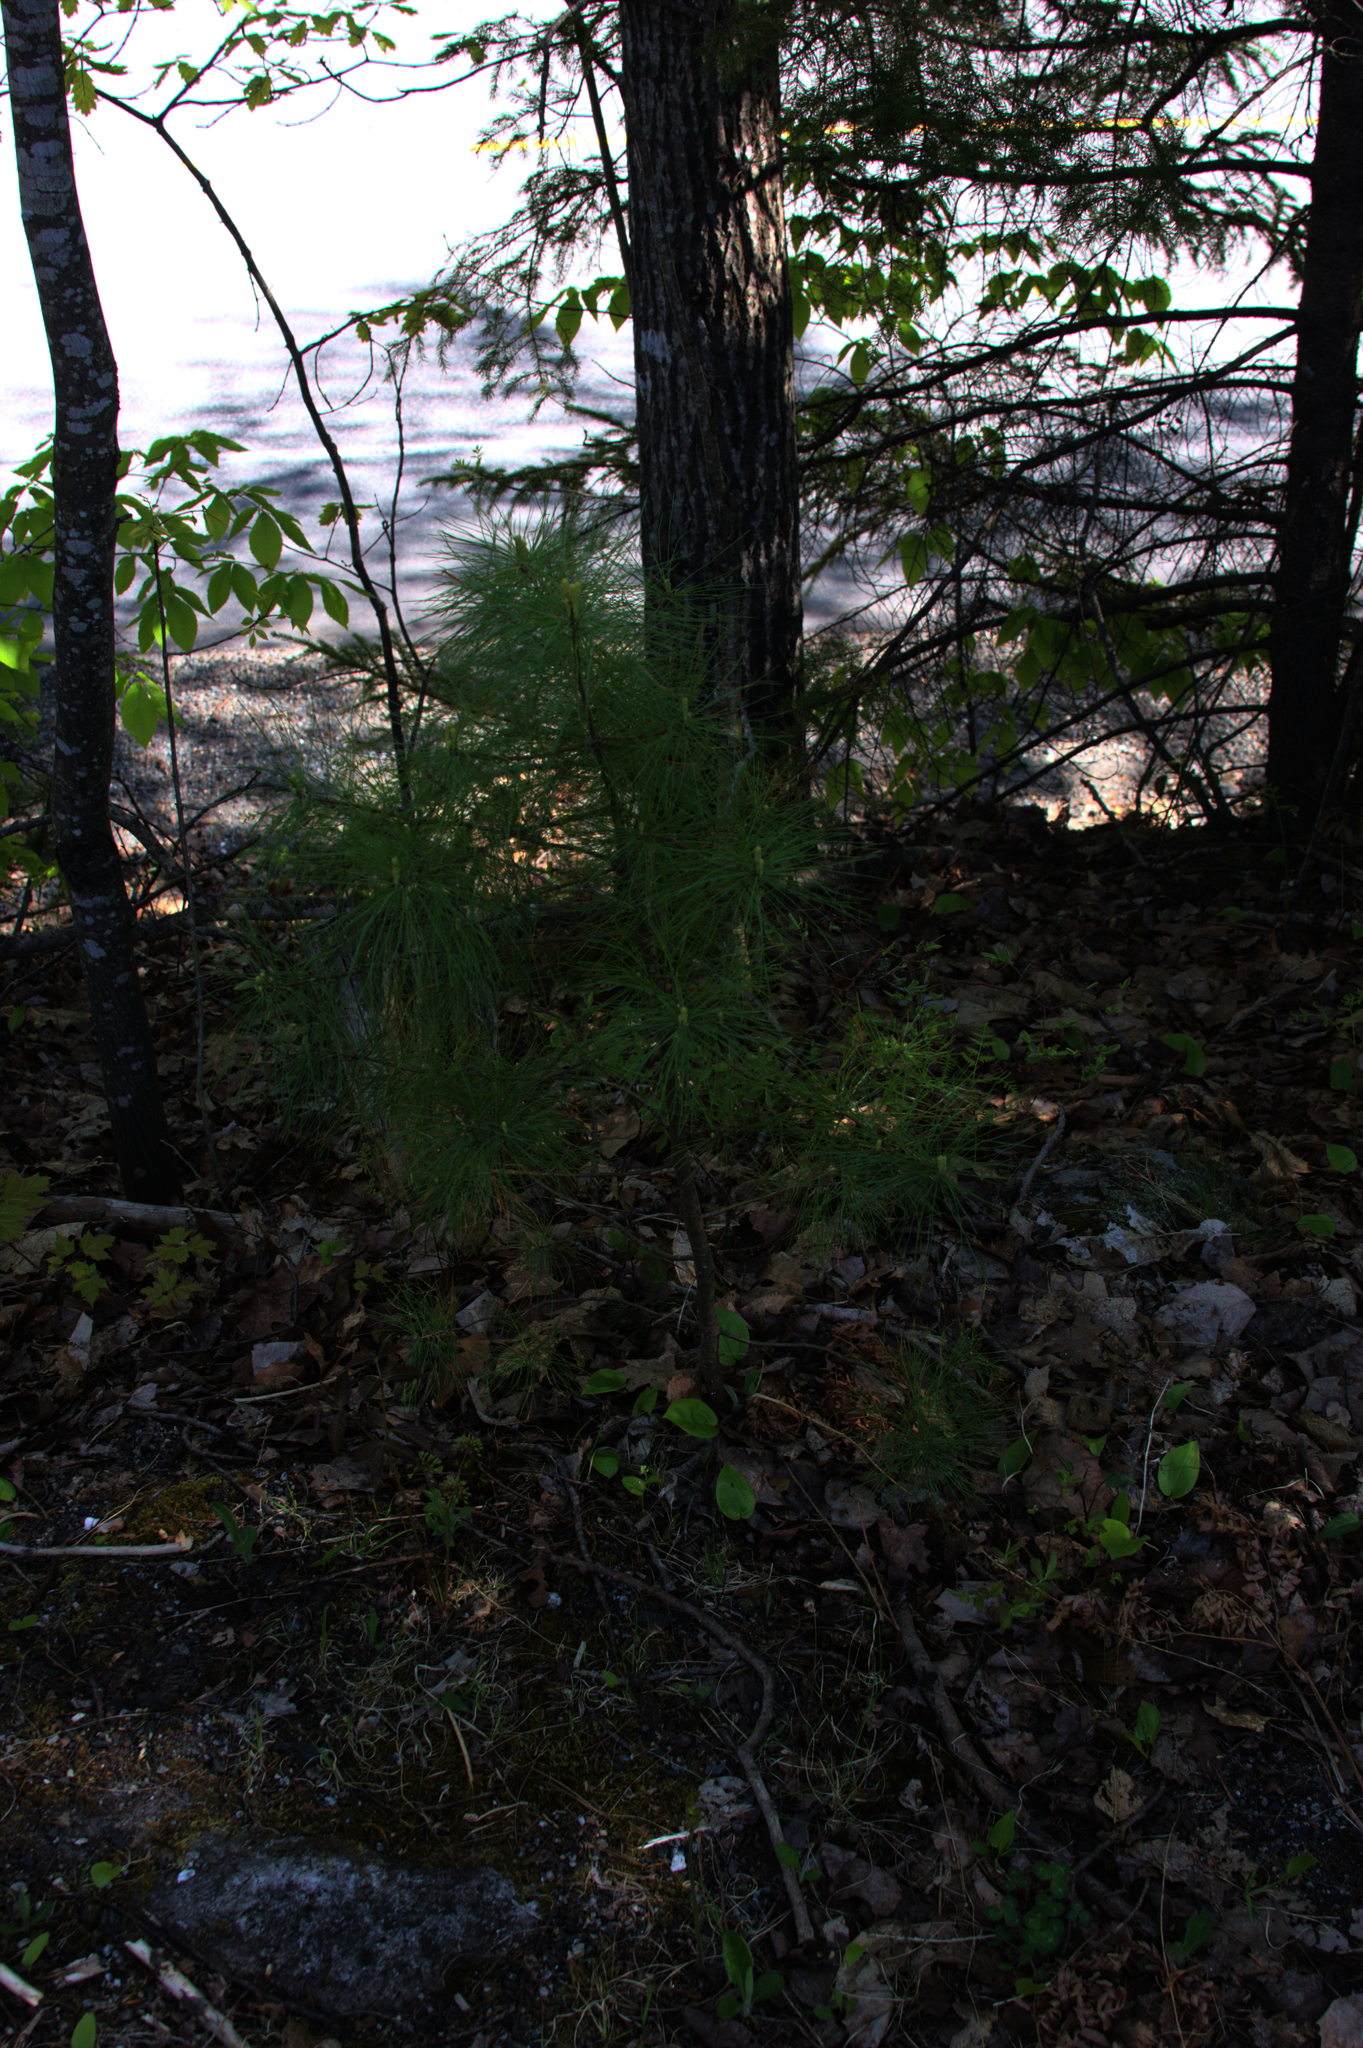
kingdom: Plantae
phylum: Tracheophyta
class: Pinopsida
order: Pinales
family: Pinaceae
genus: Pinus
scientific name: Pinus strobus
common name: Weymouth pine
